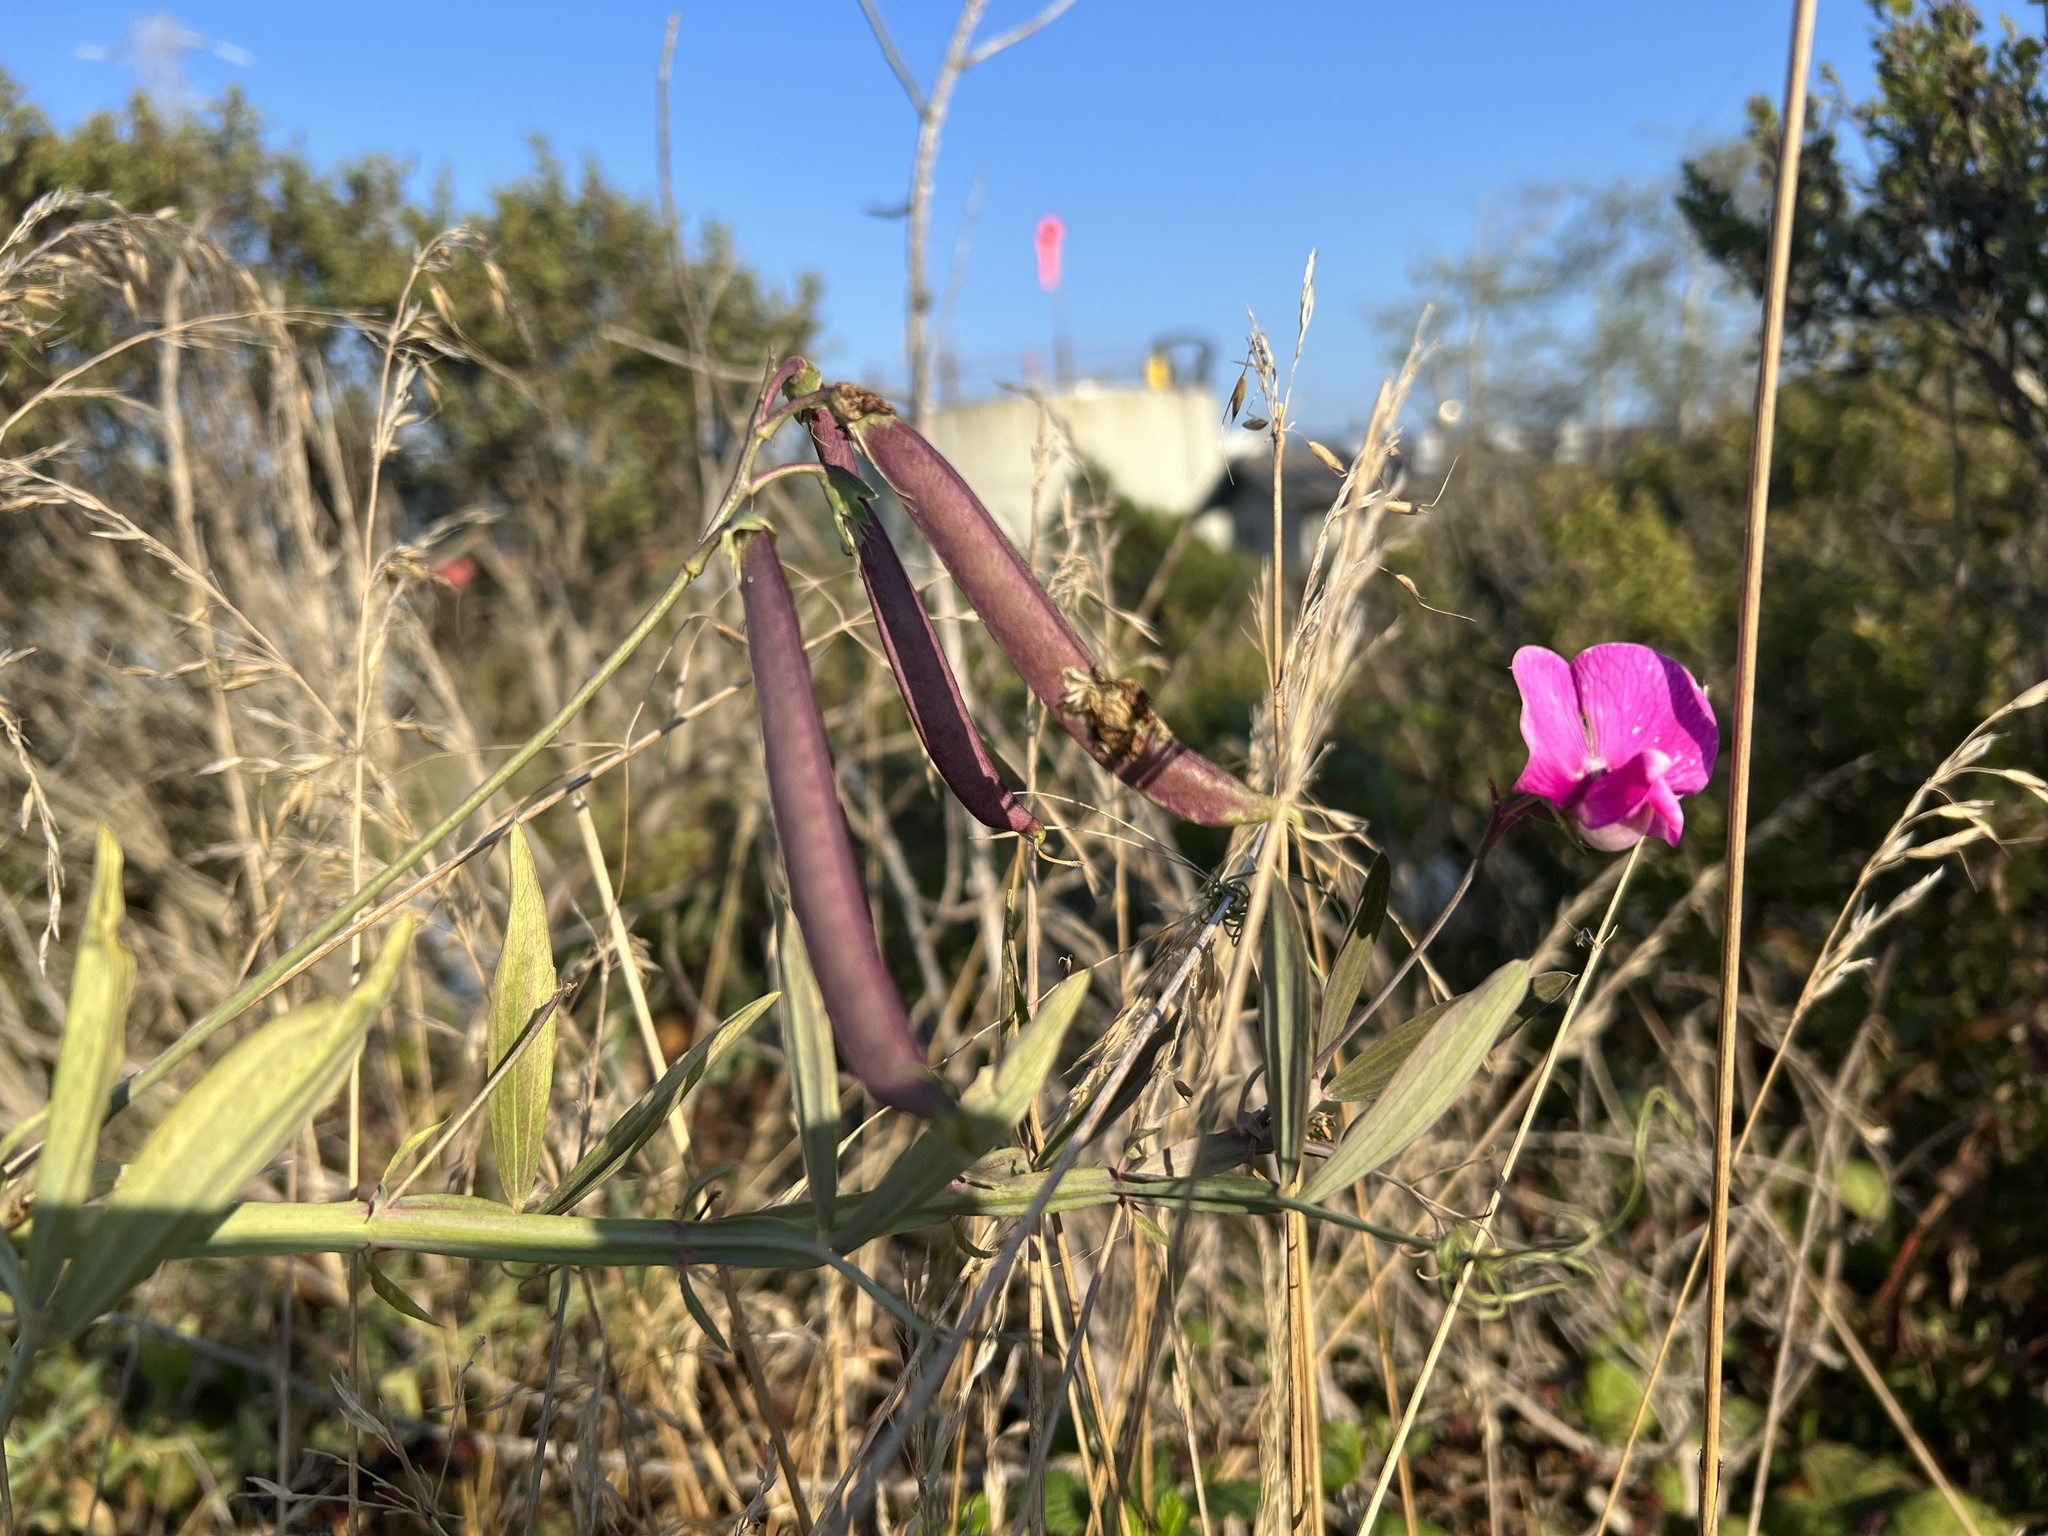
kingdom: Plantae
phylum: Tracheophyta
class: Magnoliopsida
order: Fabales
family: Fabaceae
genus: Lathyrus
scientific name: Lathyrus latifolius
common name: Perennial pea
